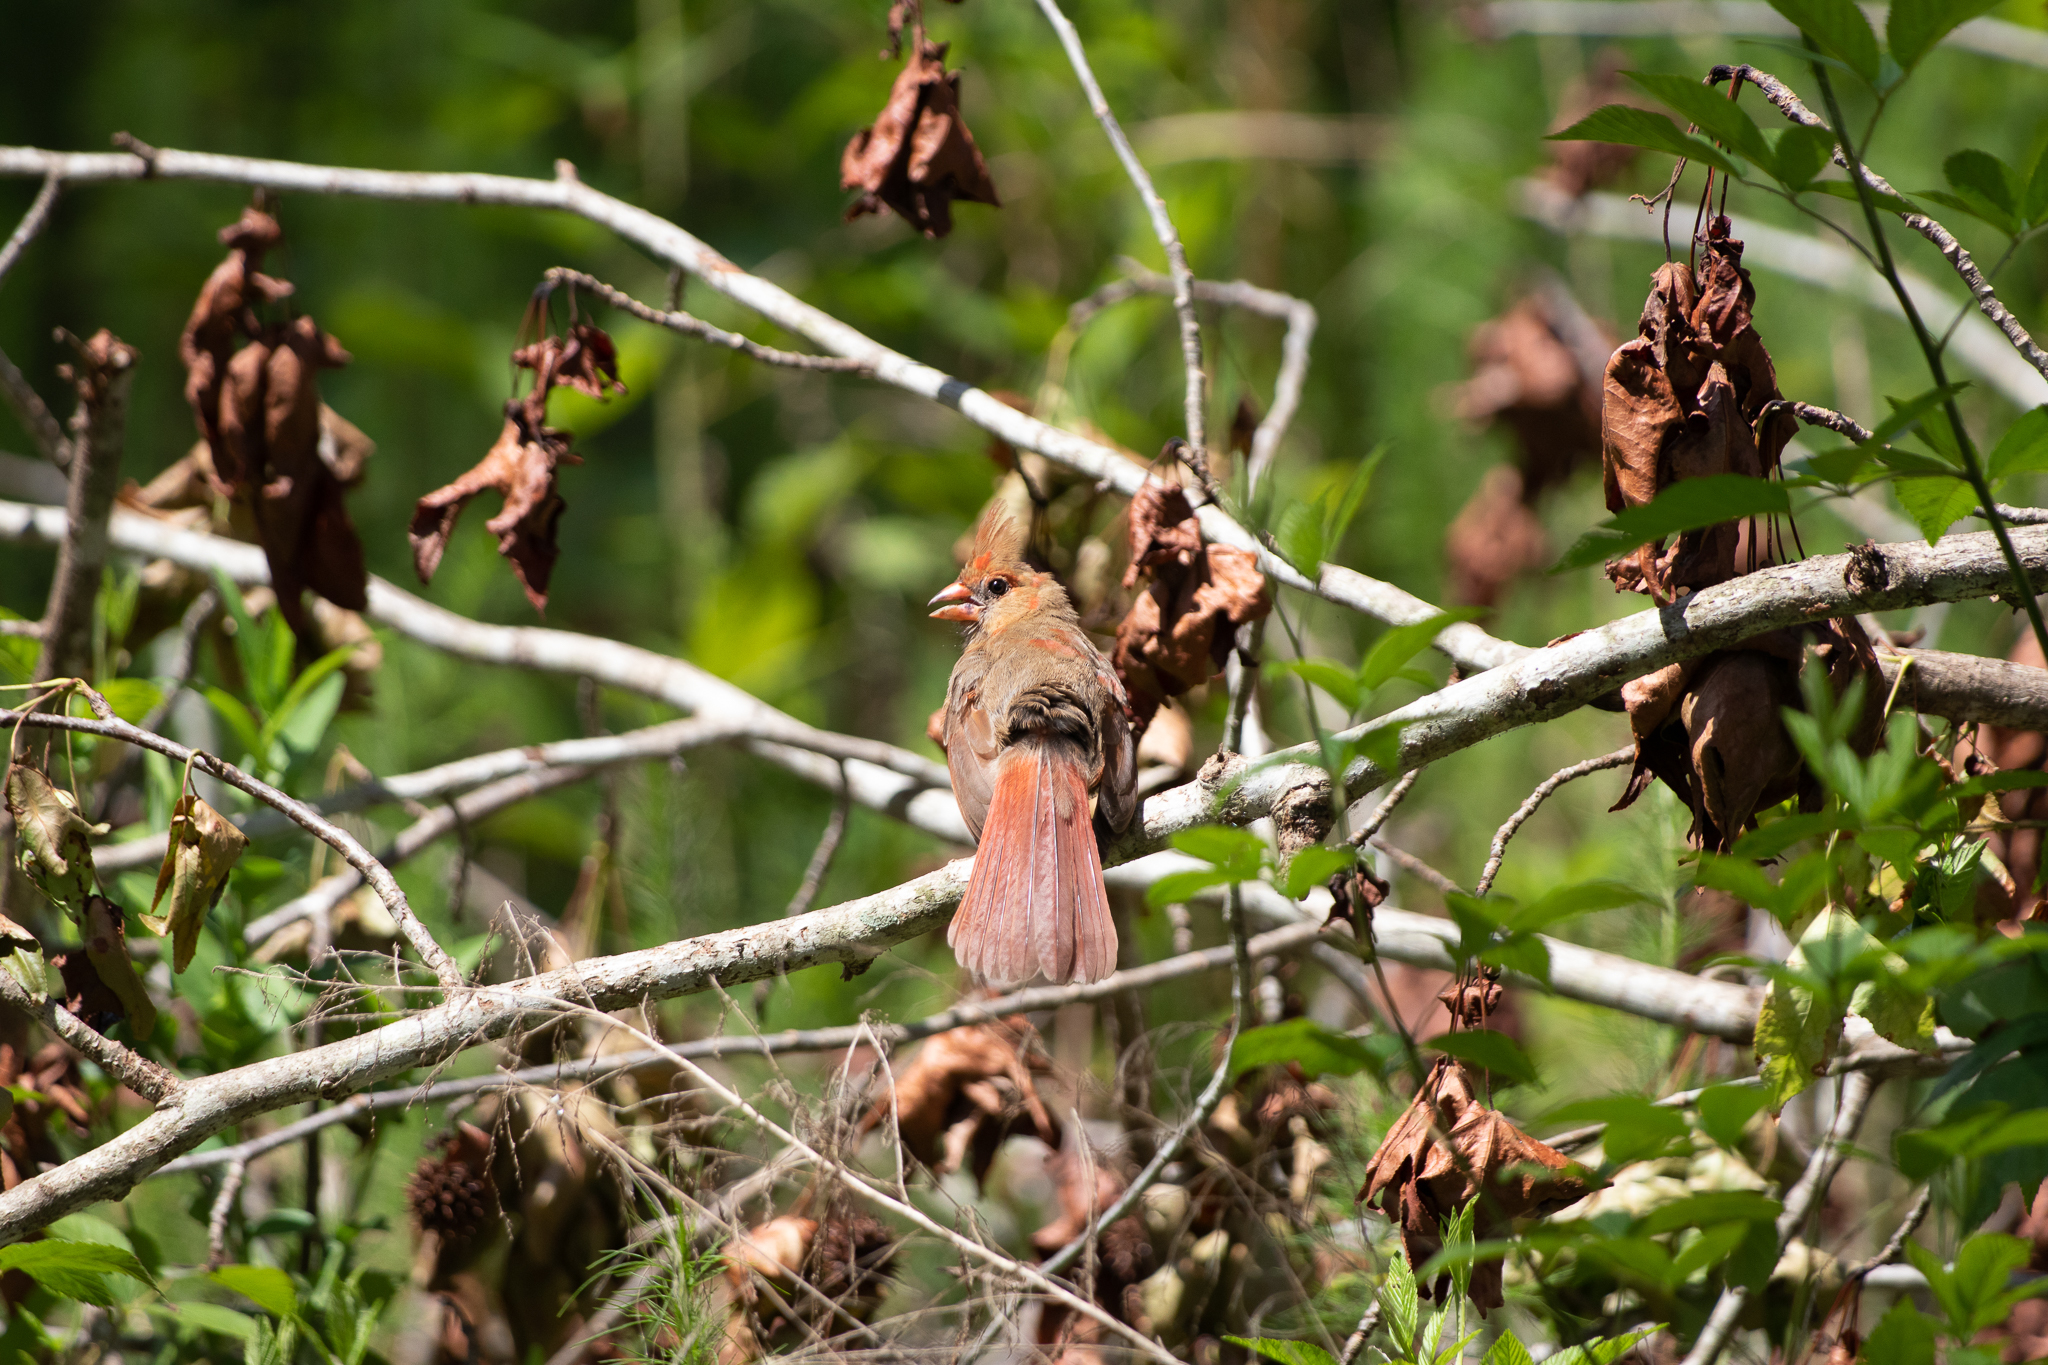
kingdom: Animalia
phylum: Chordata
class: Aves
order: Passeriformes
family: Cardinalidae
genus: Cardinalis
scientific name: Cardinalis cardinalis
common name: Northern cardinal
